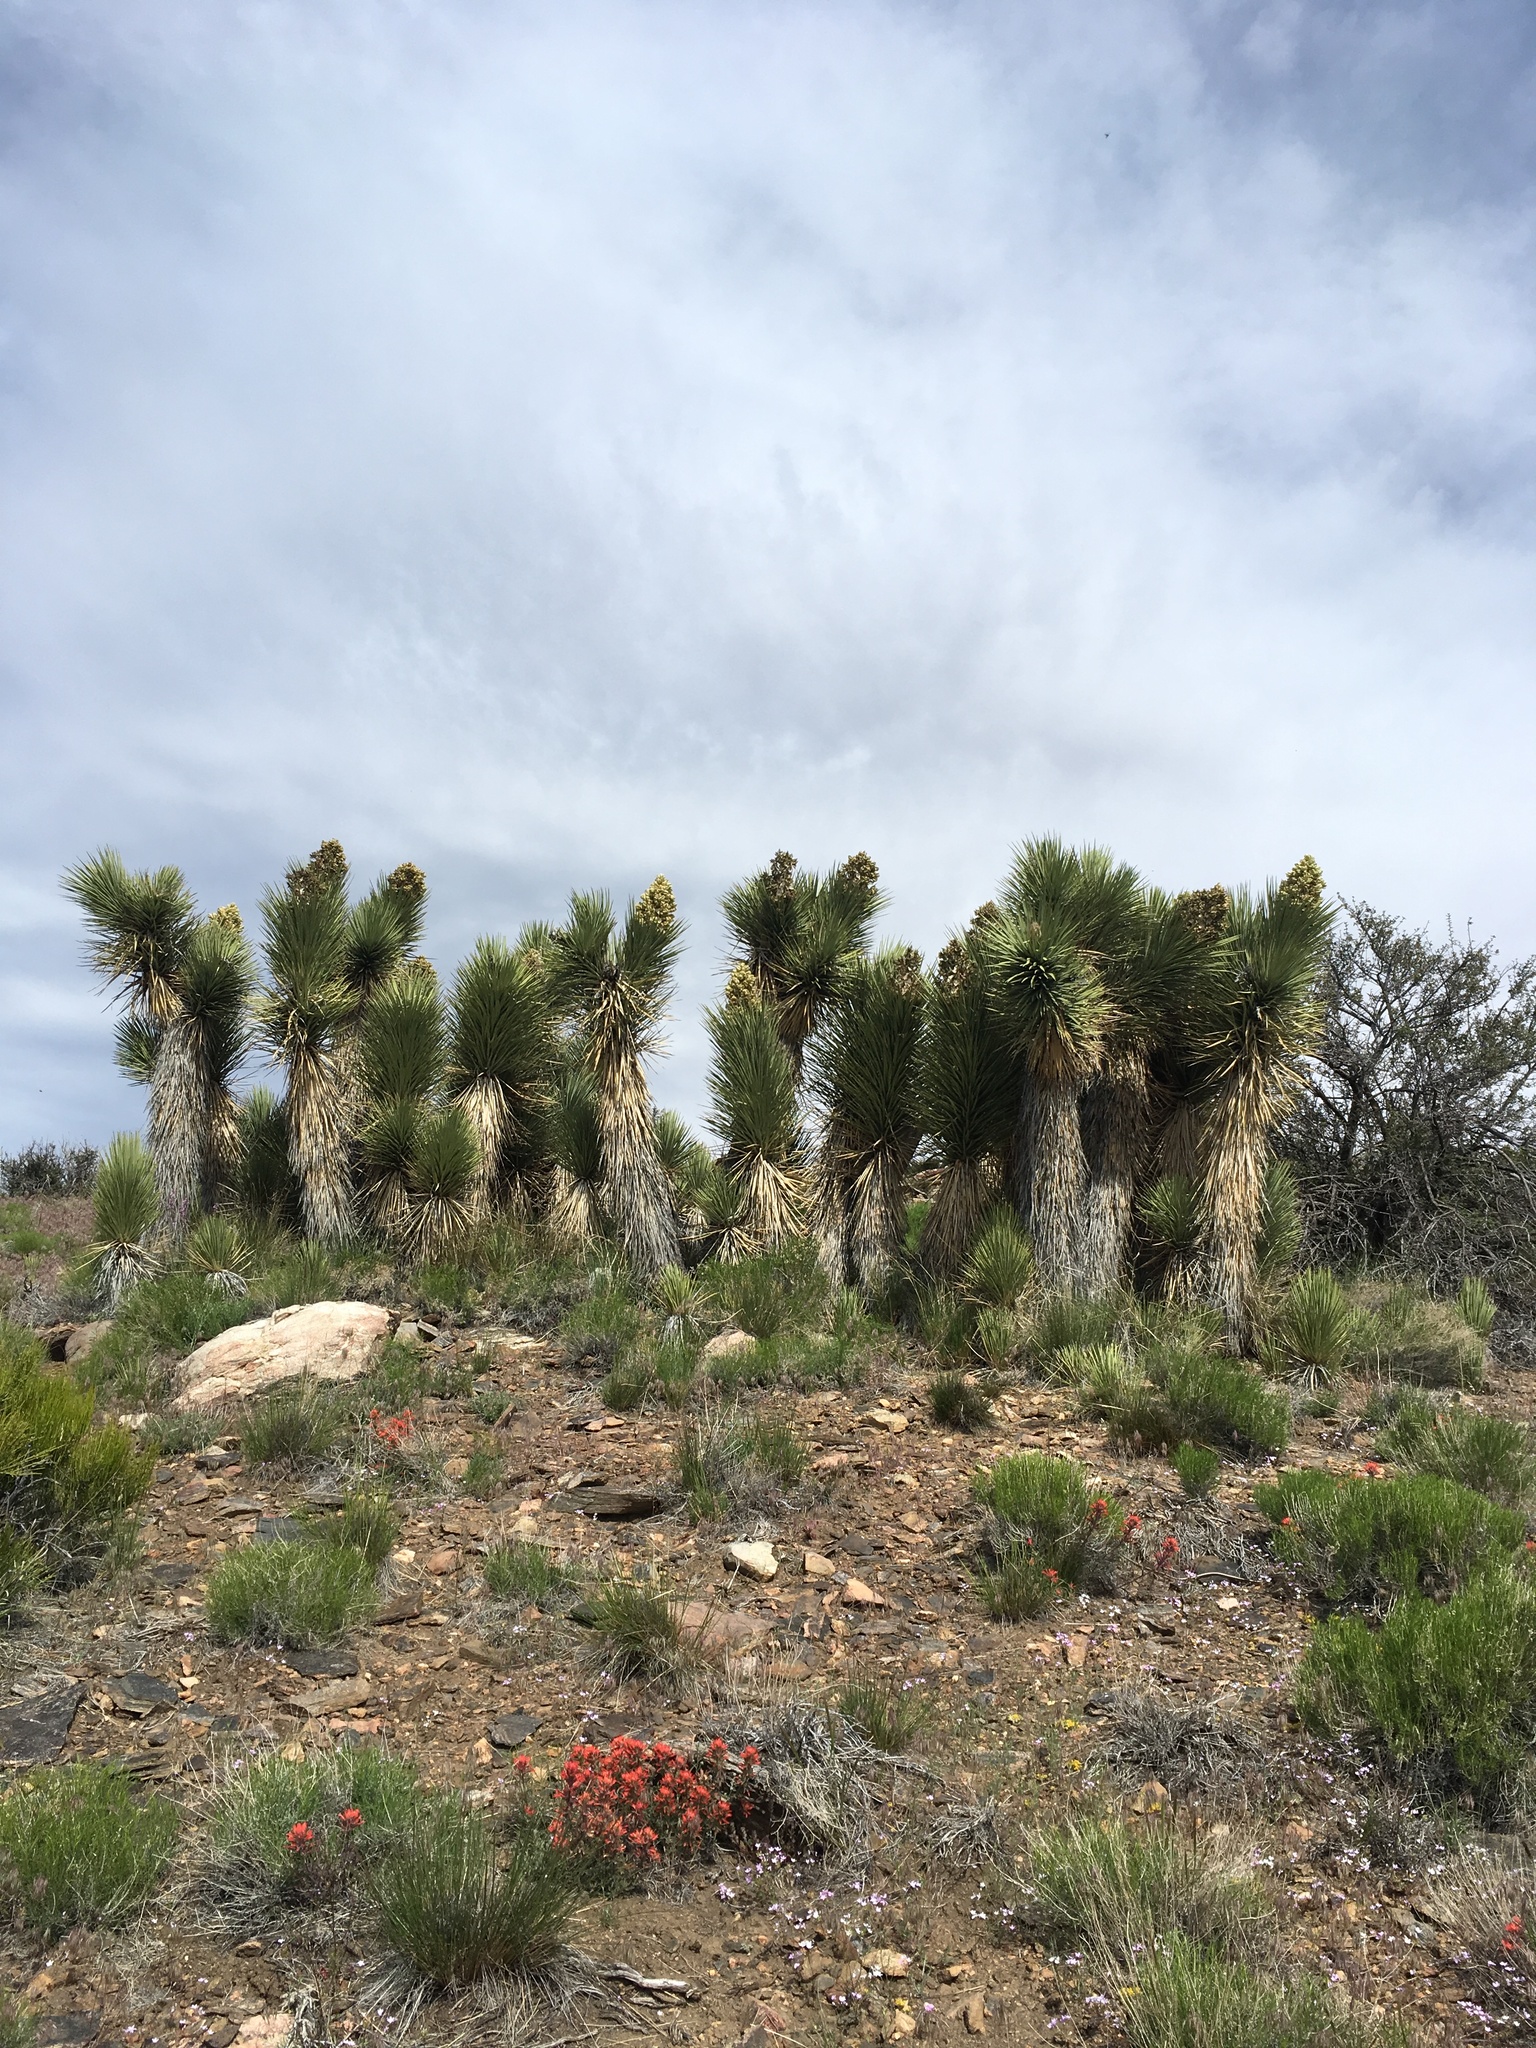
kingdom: Plantae
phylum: Tracheophyta
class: Liliopsida
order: Asparagales
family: Asparagaceae
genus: Yucca
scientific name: Yucca brevifolia
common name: Joshua tree
